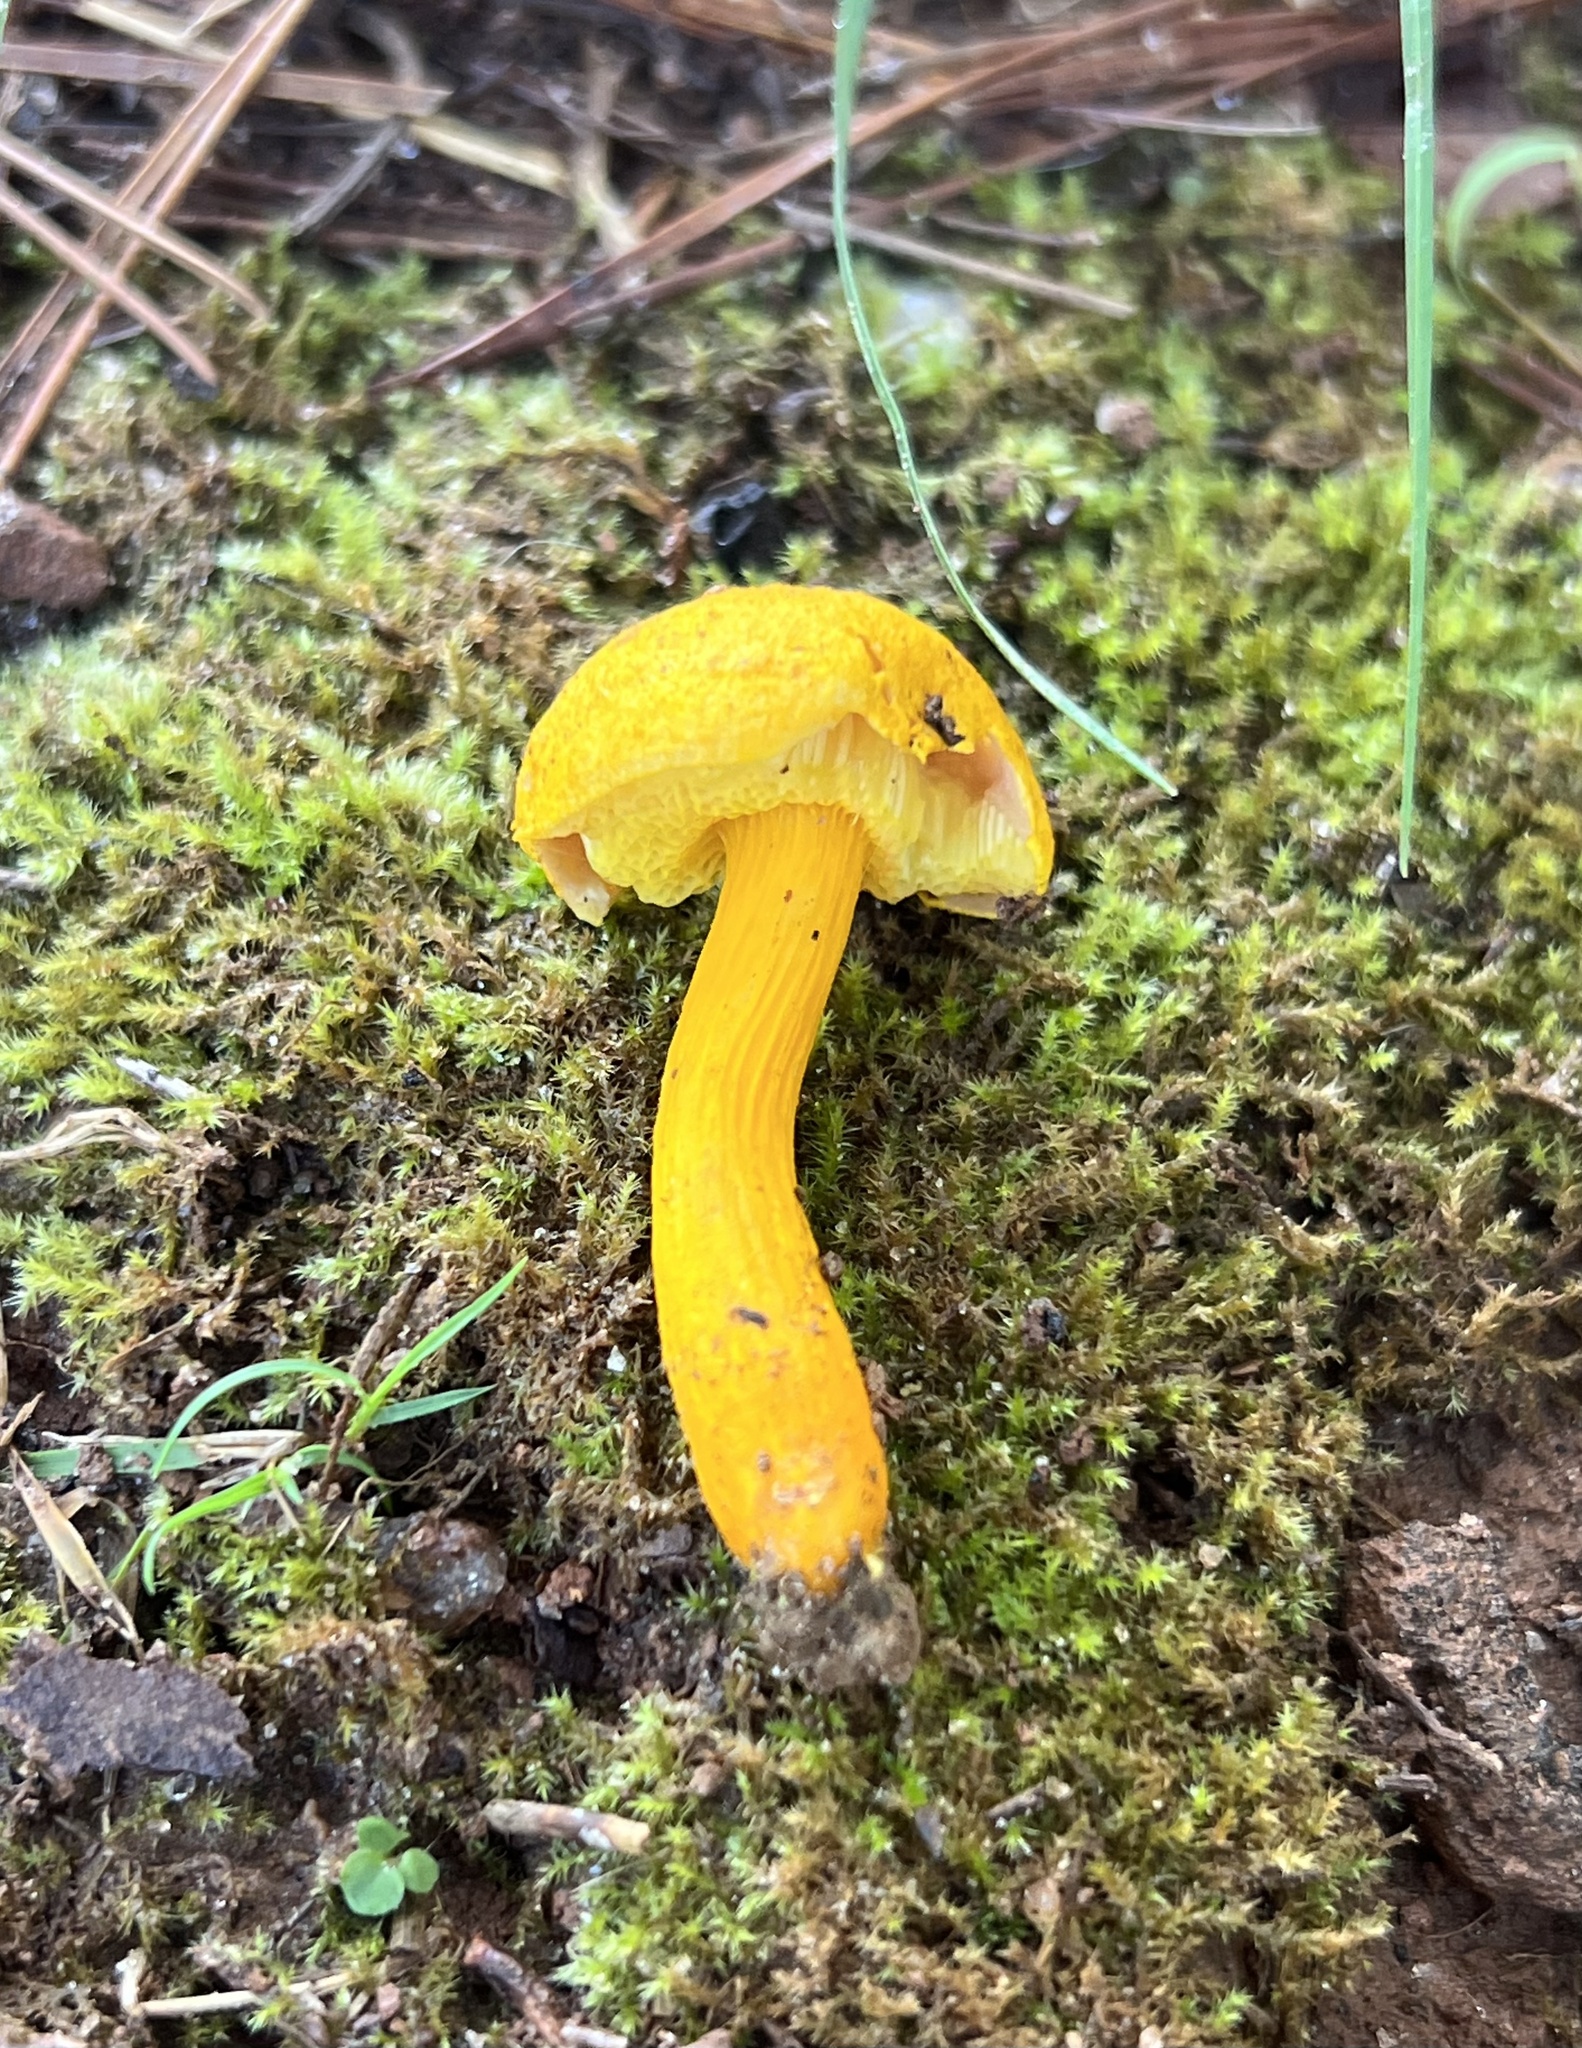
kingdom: Fungi
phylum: Basidiomycota
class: Agaricomycetes
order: Boletales
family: Boletaceae
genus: Aureoboletus
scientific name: Aureoboletus auriflammeus
